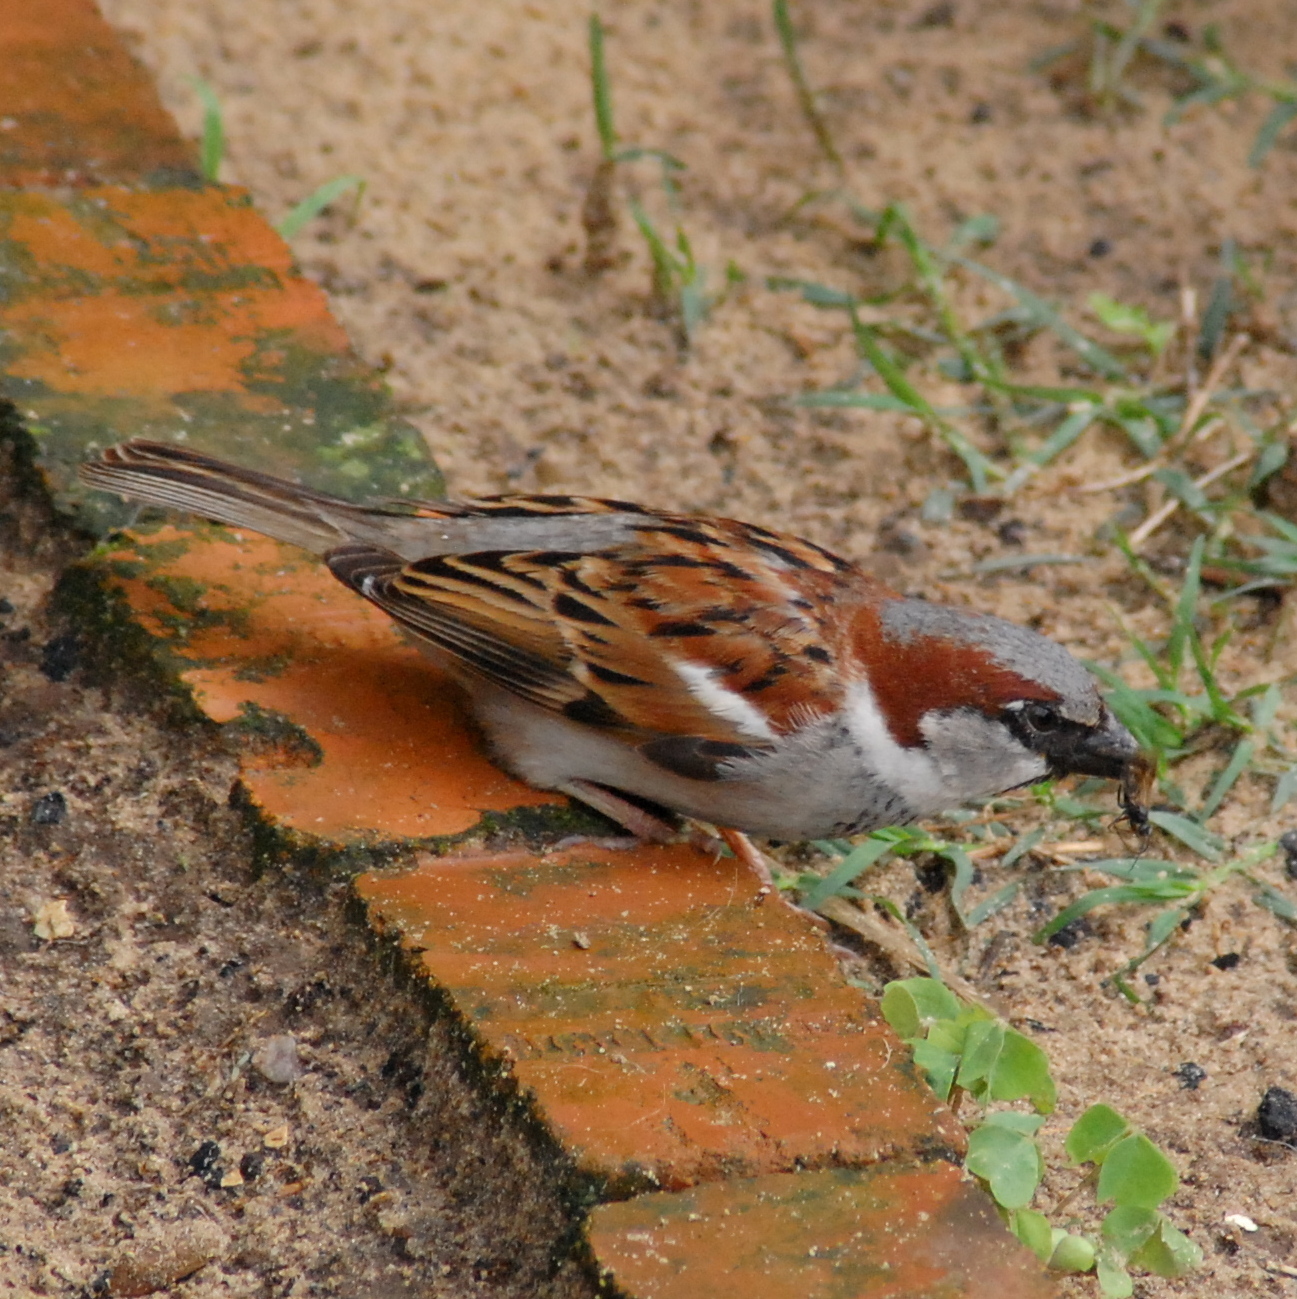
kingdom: Animalia
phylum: Chordata
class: Aves
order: Passeriformes
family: Passeridae
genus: Passer
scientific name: Passer domesticus
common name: House sparrow
